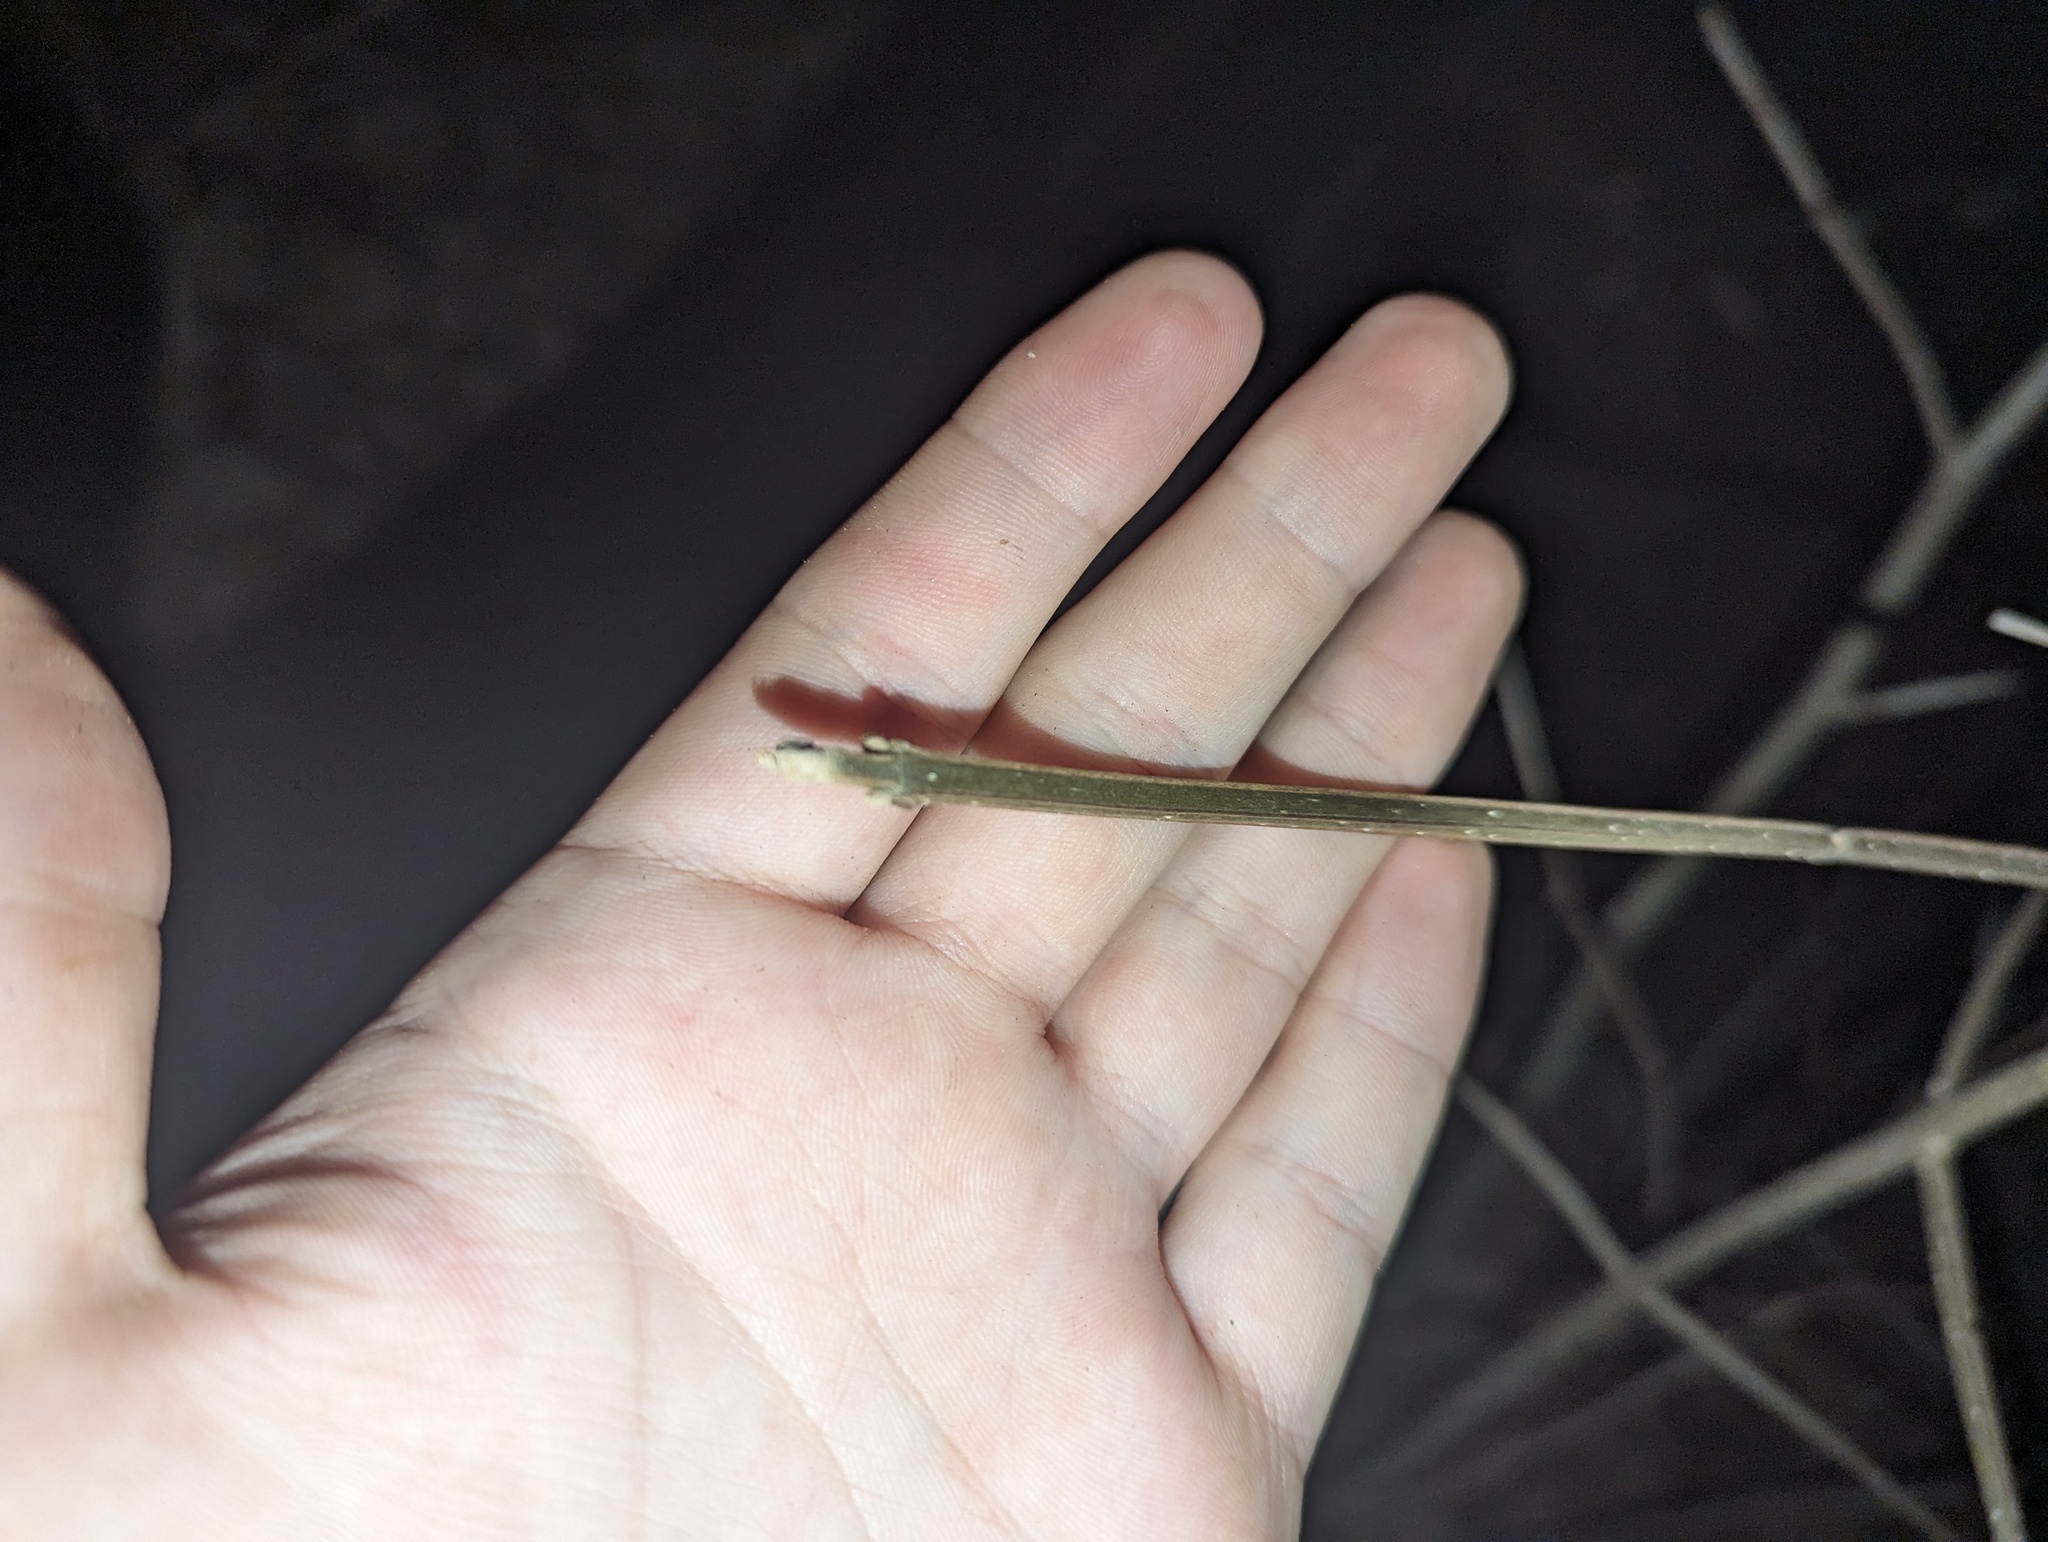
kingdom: Plantae
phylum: Tracheophyta
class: Magnoliopsida
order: Lamiales
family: Oleaceae
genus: Fraxinus
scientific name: Fraxinus quadrangulata
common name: Blue ash
